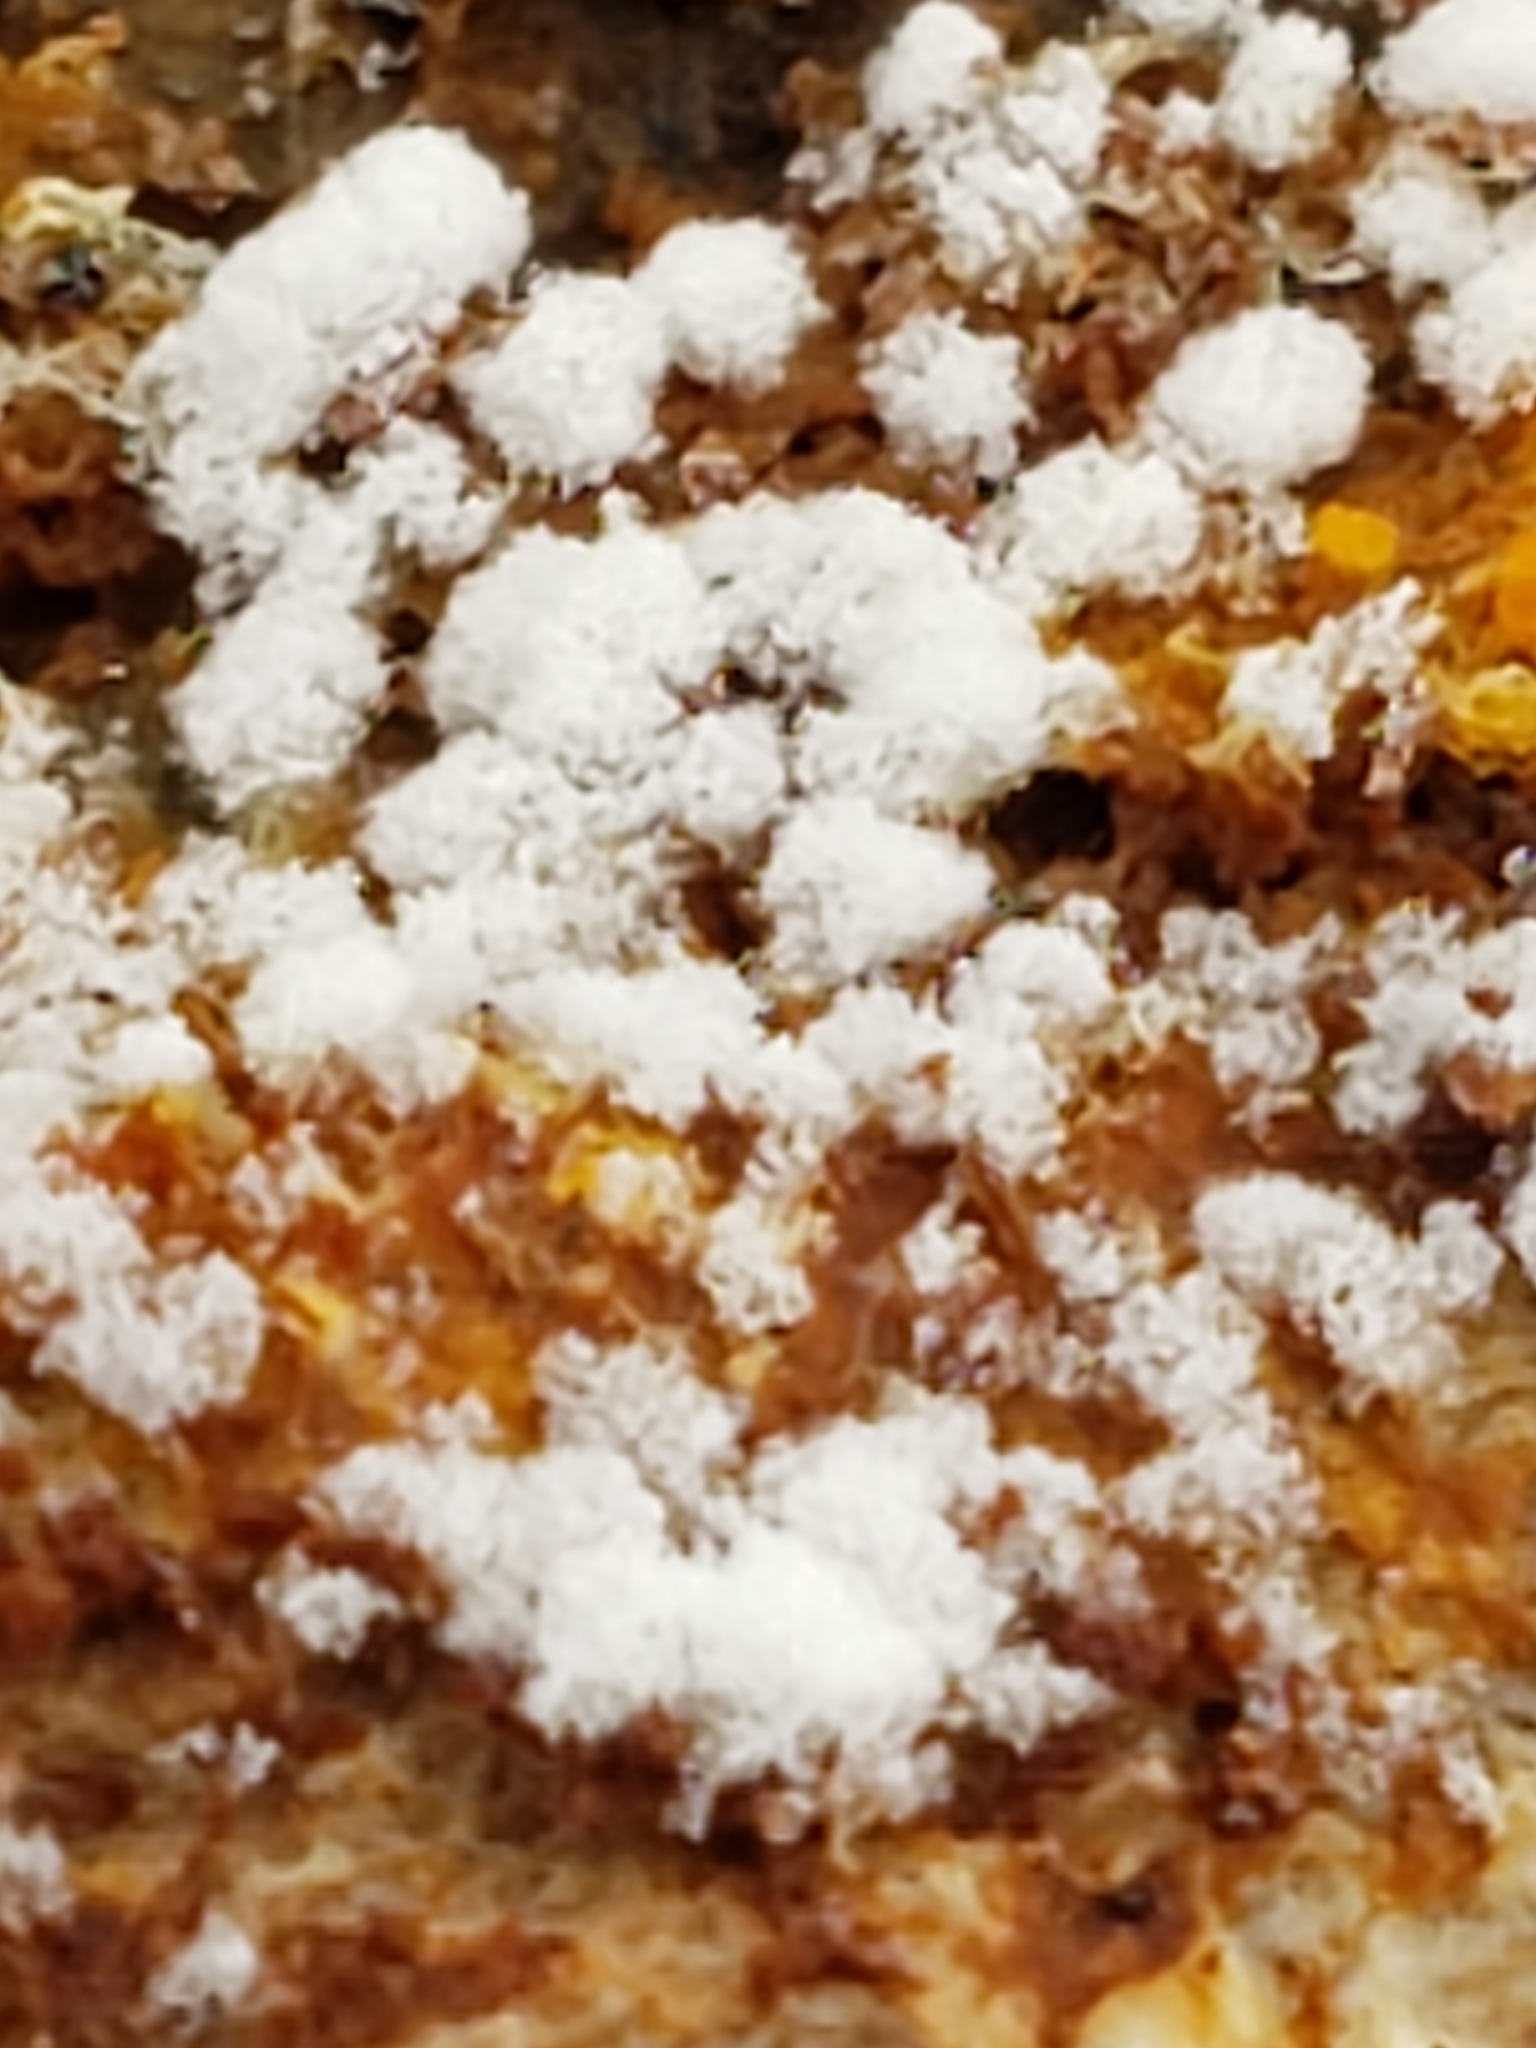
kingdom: Fungi
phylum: Ascomycota
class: Sordariomycetes
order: Hypocreales
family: Hypocreaceae
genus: Hypomyces
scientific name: Hypomyces aurantius
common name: Orange polypore mould
